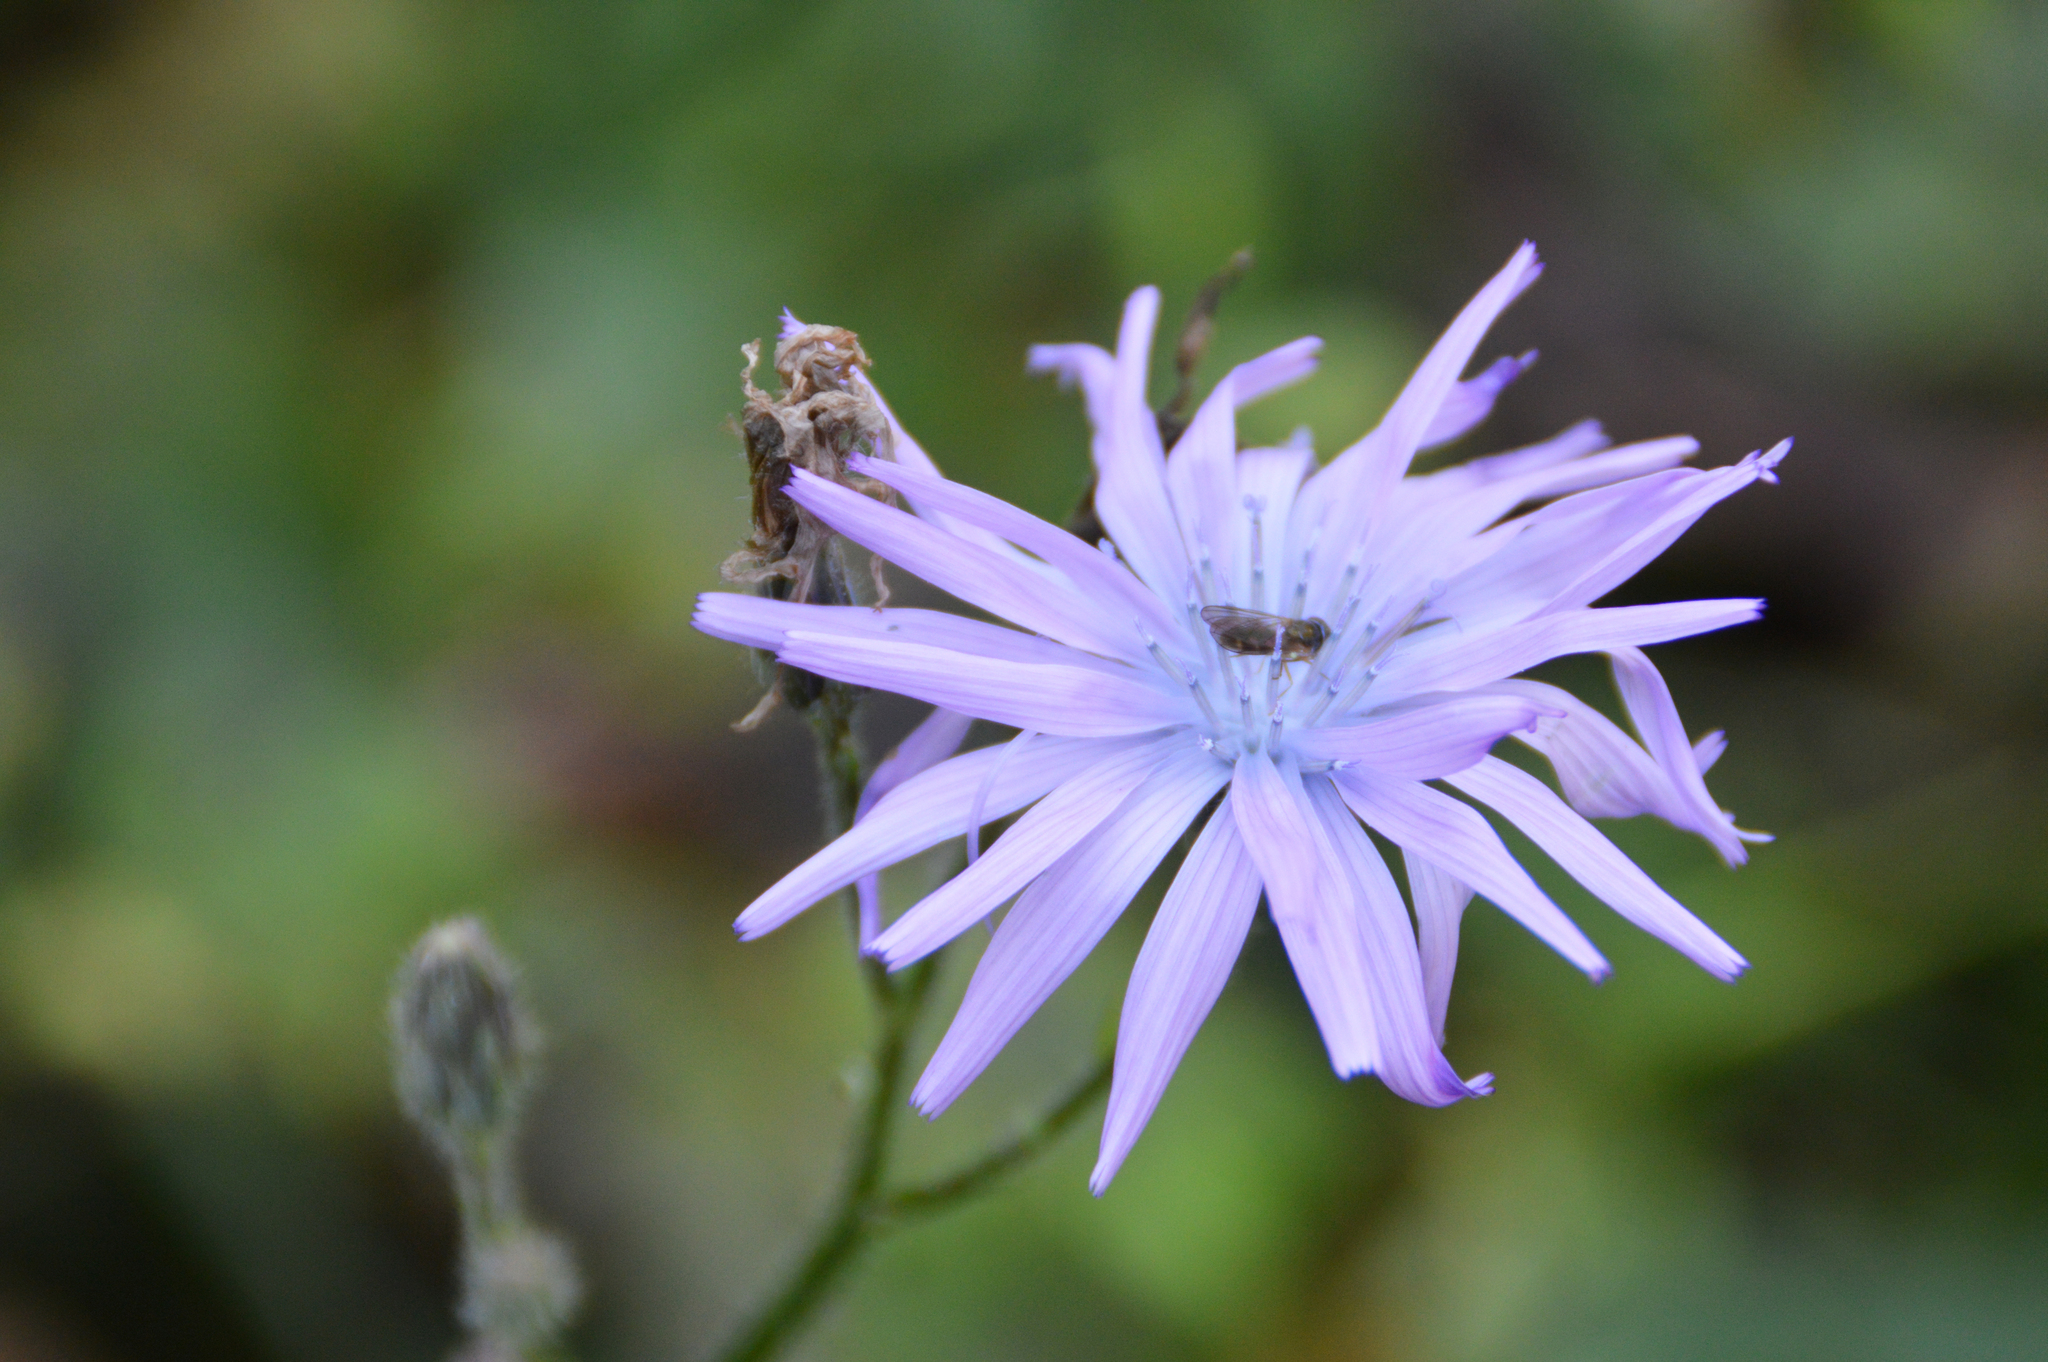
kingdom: Plantae
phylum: Tracheophyta
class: Magnoliopsida
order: Asterales
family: Asteraceae
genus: Lactuca
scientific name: Lactuca macrophylla
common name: Common blue-sow-thistle
